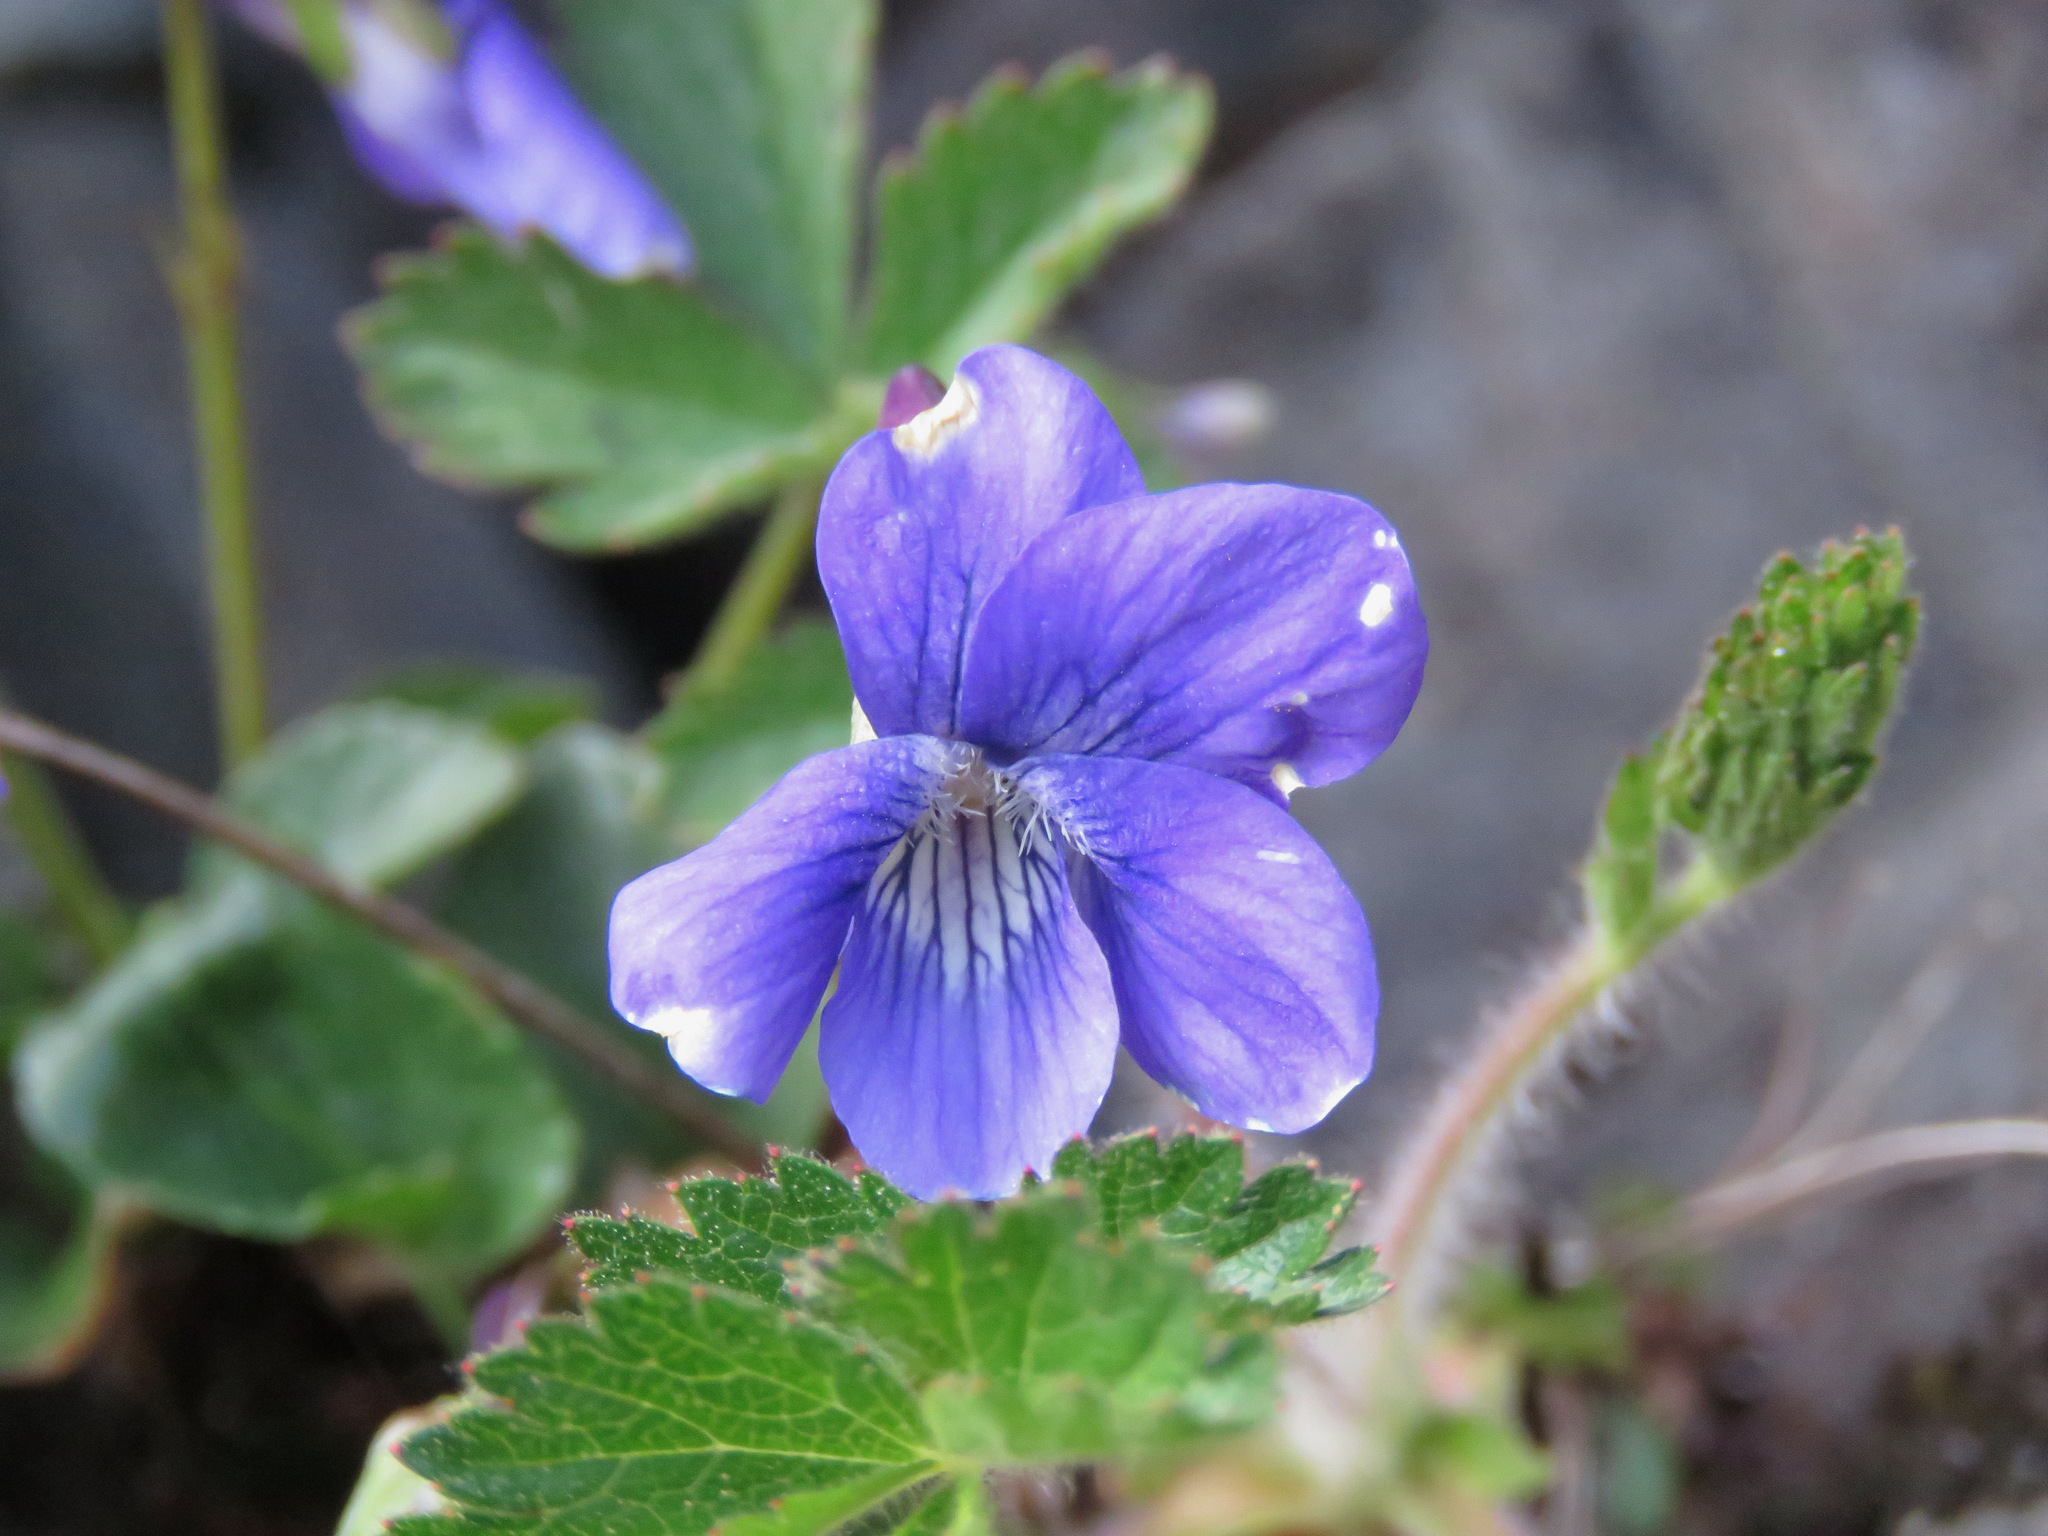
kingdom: Plantae
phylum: Tracheophyta
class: Magnoliopsida
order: Malpighiales
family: Violaceae
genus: Viola
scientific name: Viola adunca
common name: Sand violet
